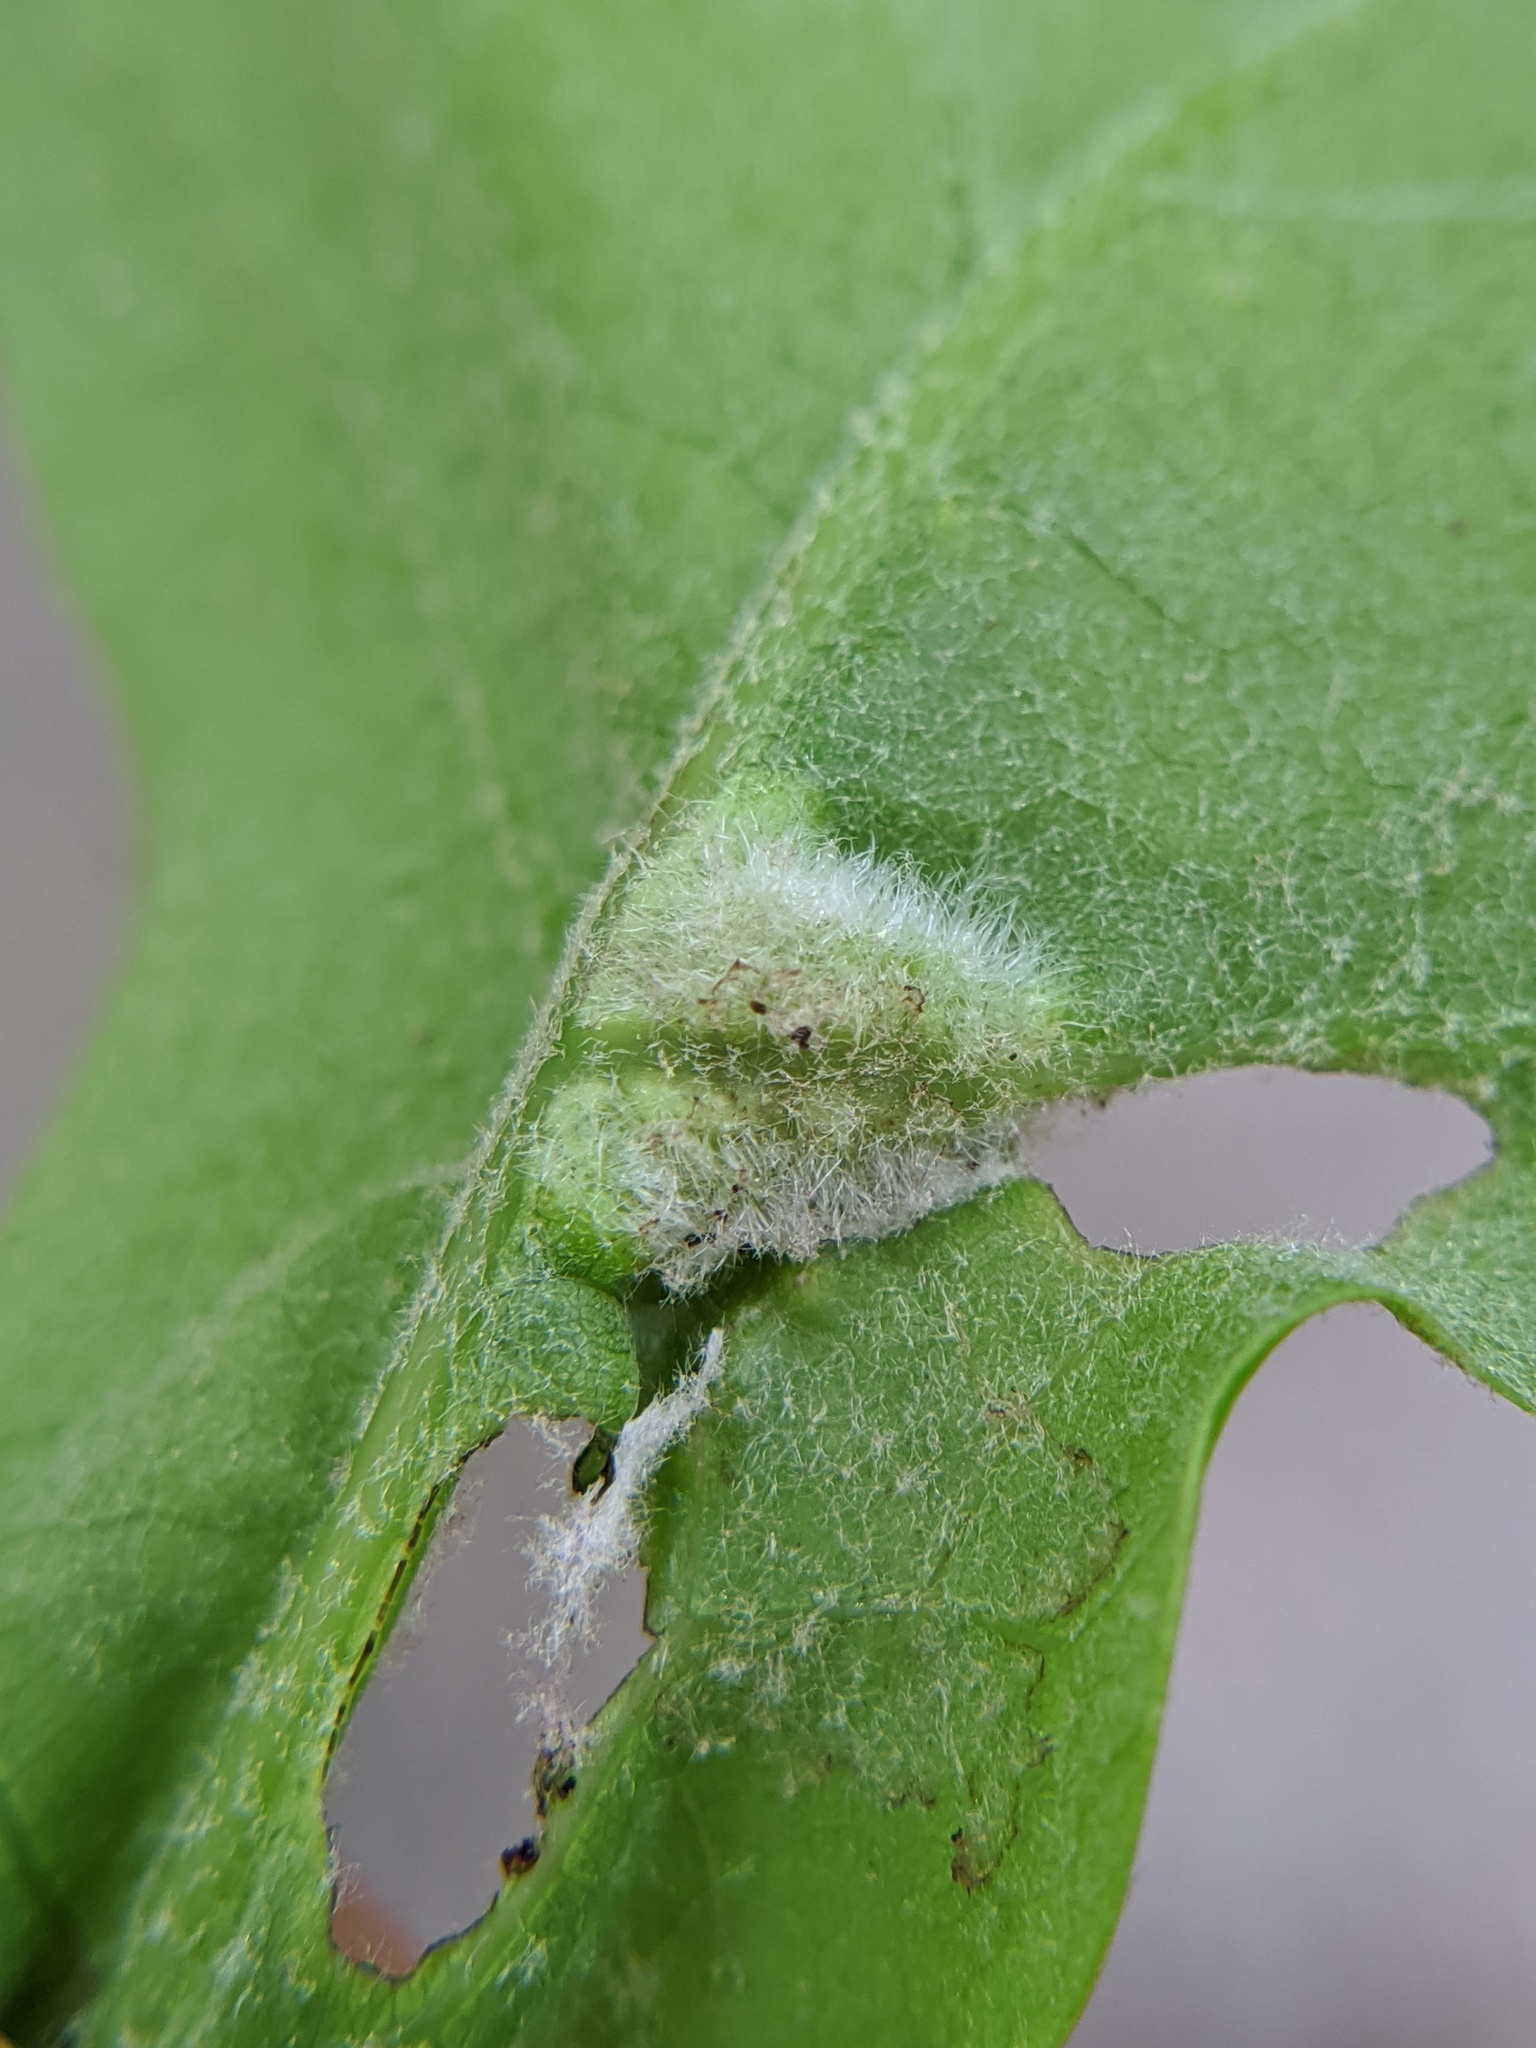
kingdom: Animalia
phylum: Arthropoda
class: Insecta
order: Diptera
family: Cecidomyiidae
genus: Macrodiplosis
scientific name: Macrodiplosis niveipila
